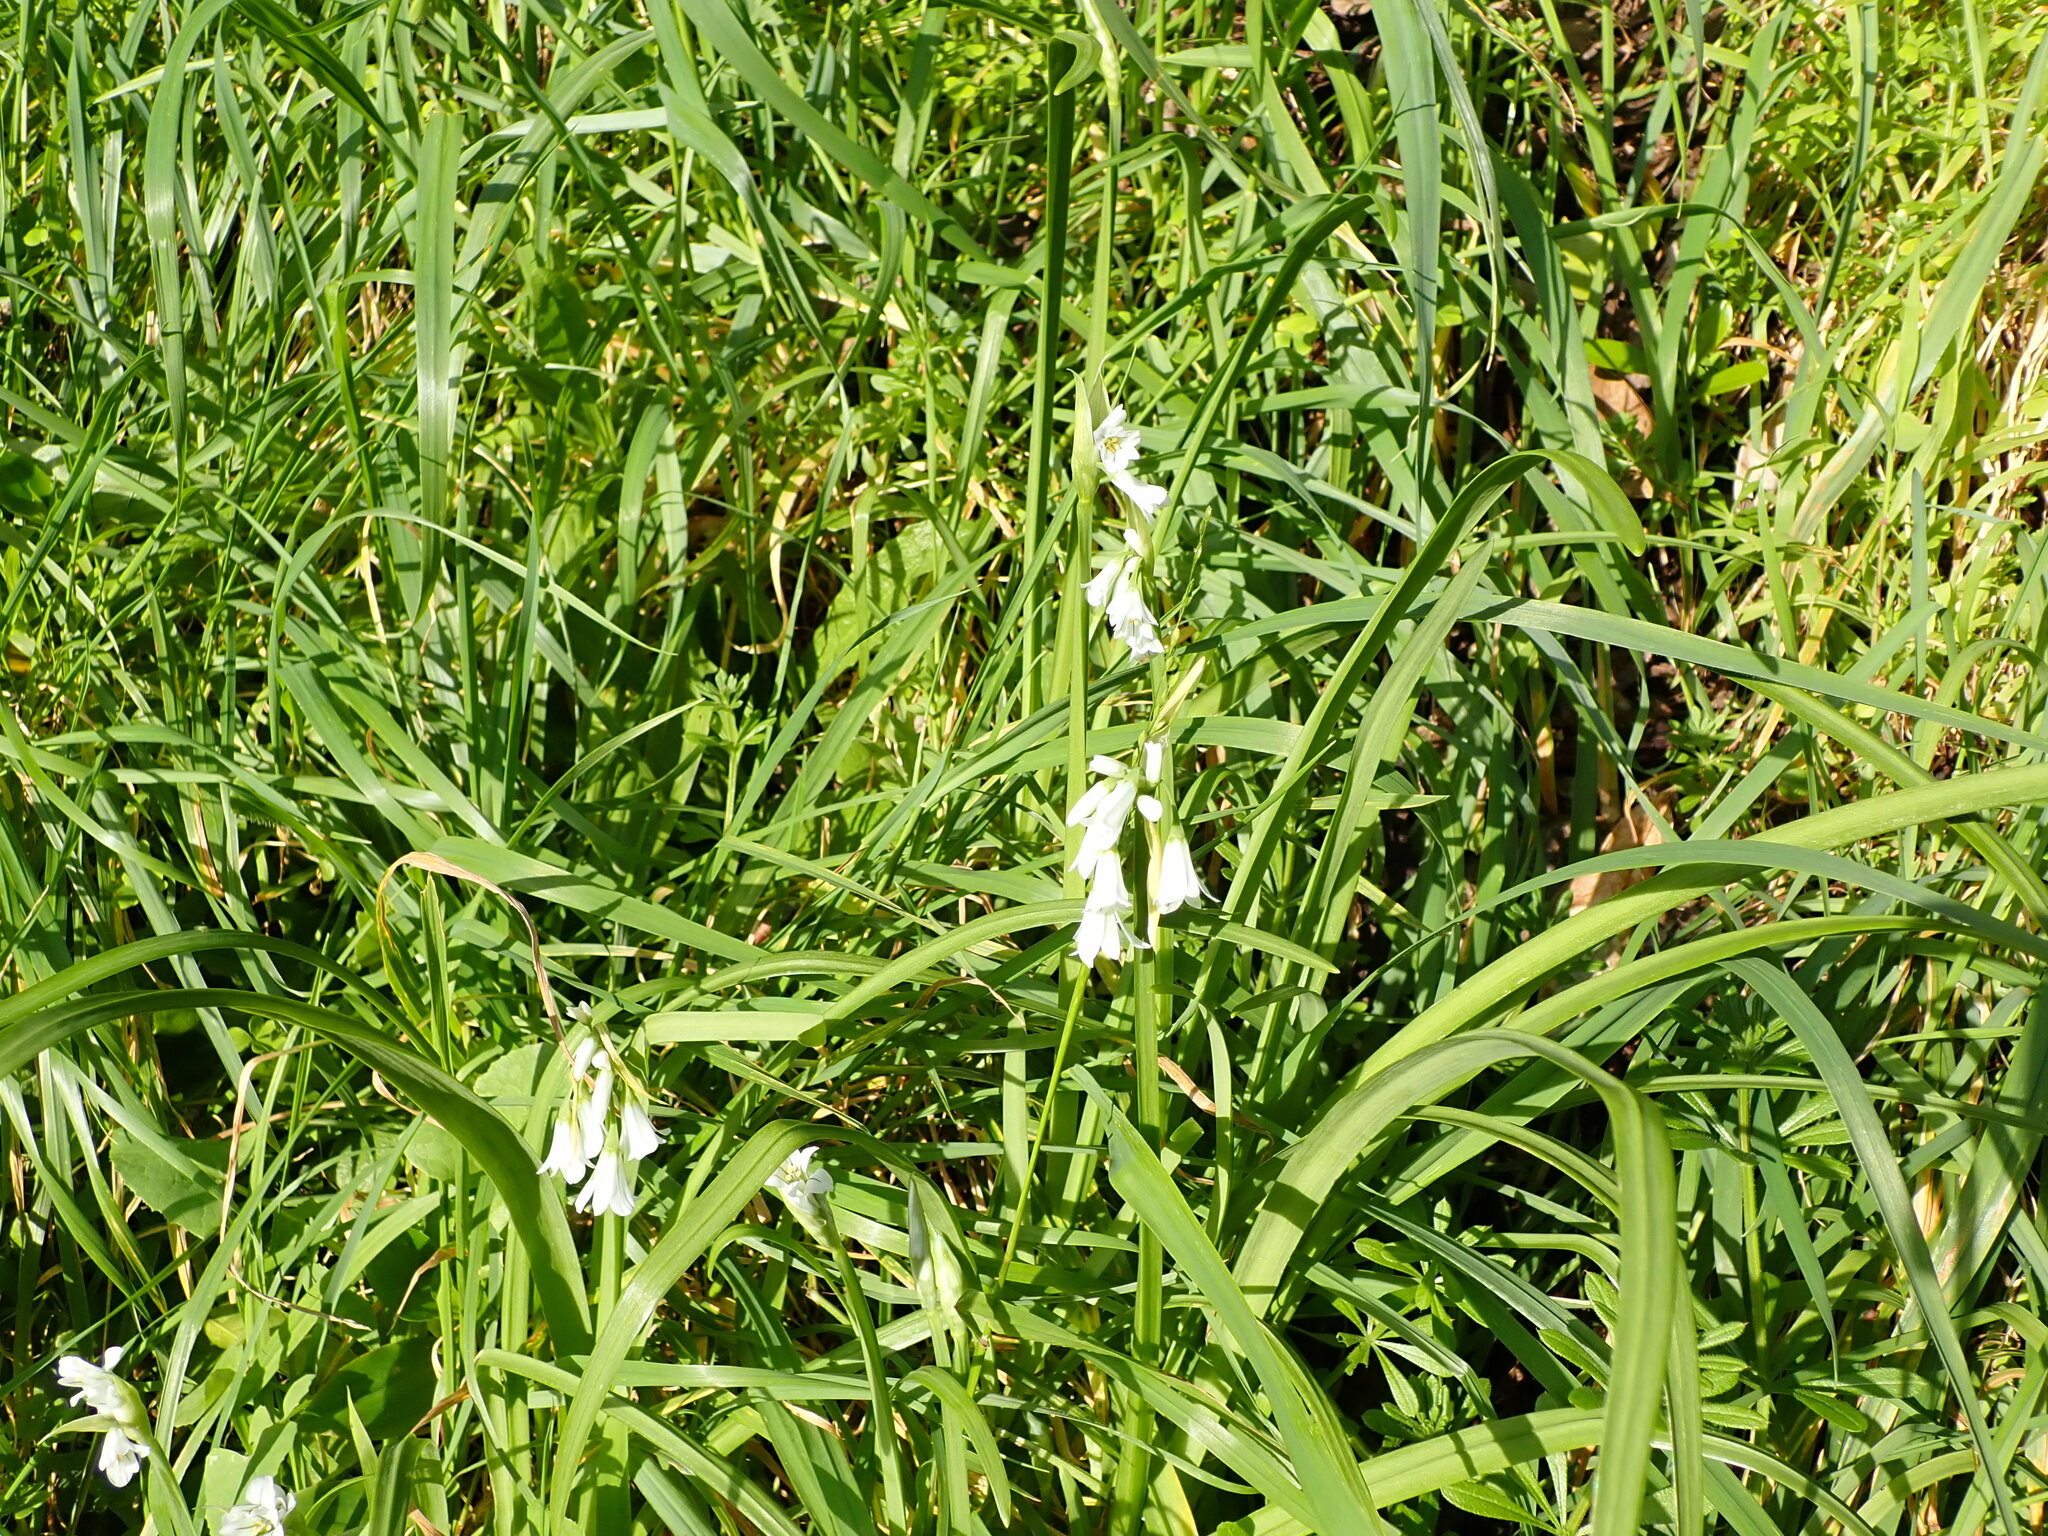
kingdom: Plantae
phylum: Tracheophyta
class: Liliopsida
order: Asparagales
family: Amaryllidaceae
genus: Allium
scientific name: Allium triquetrum
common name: Three-cornered garlic
